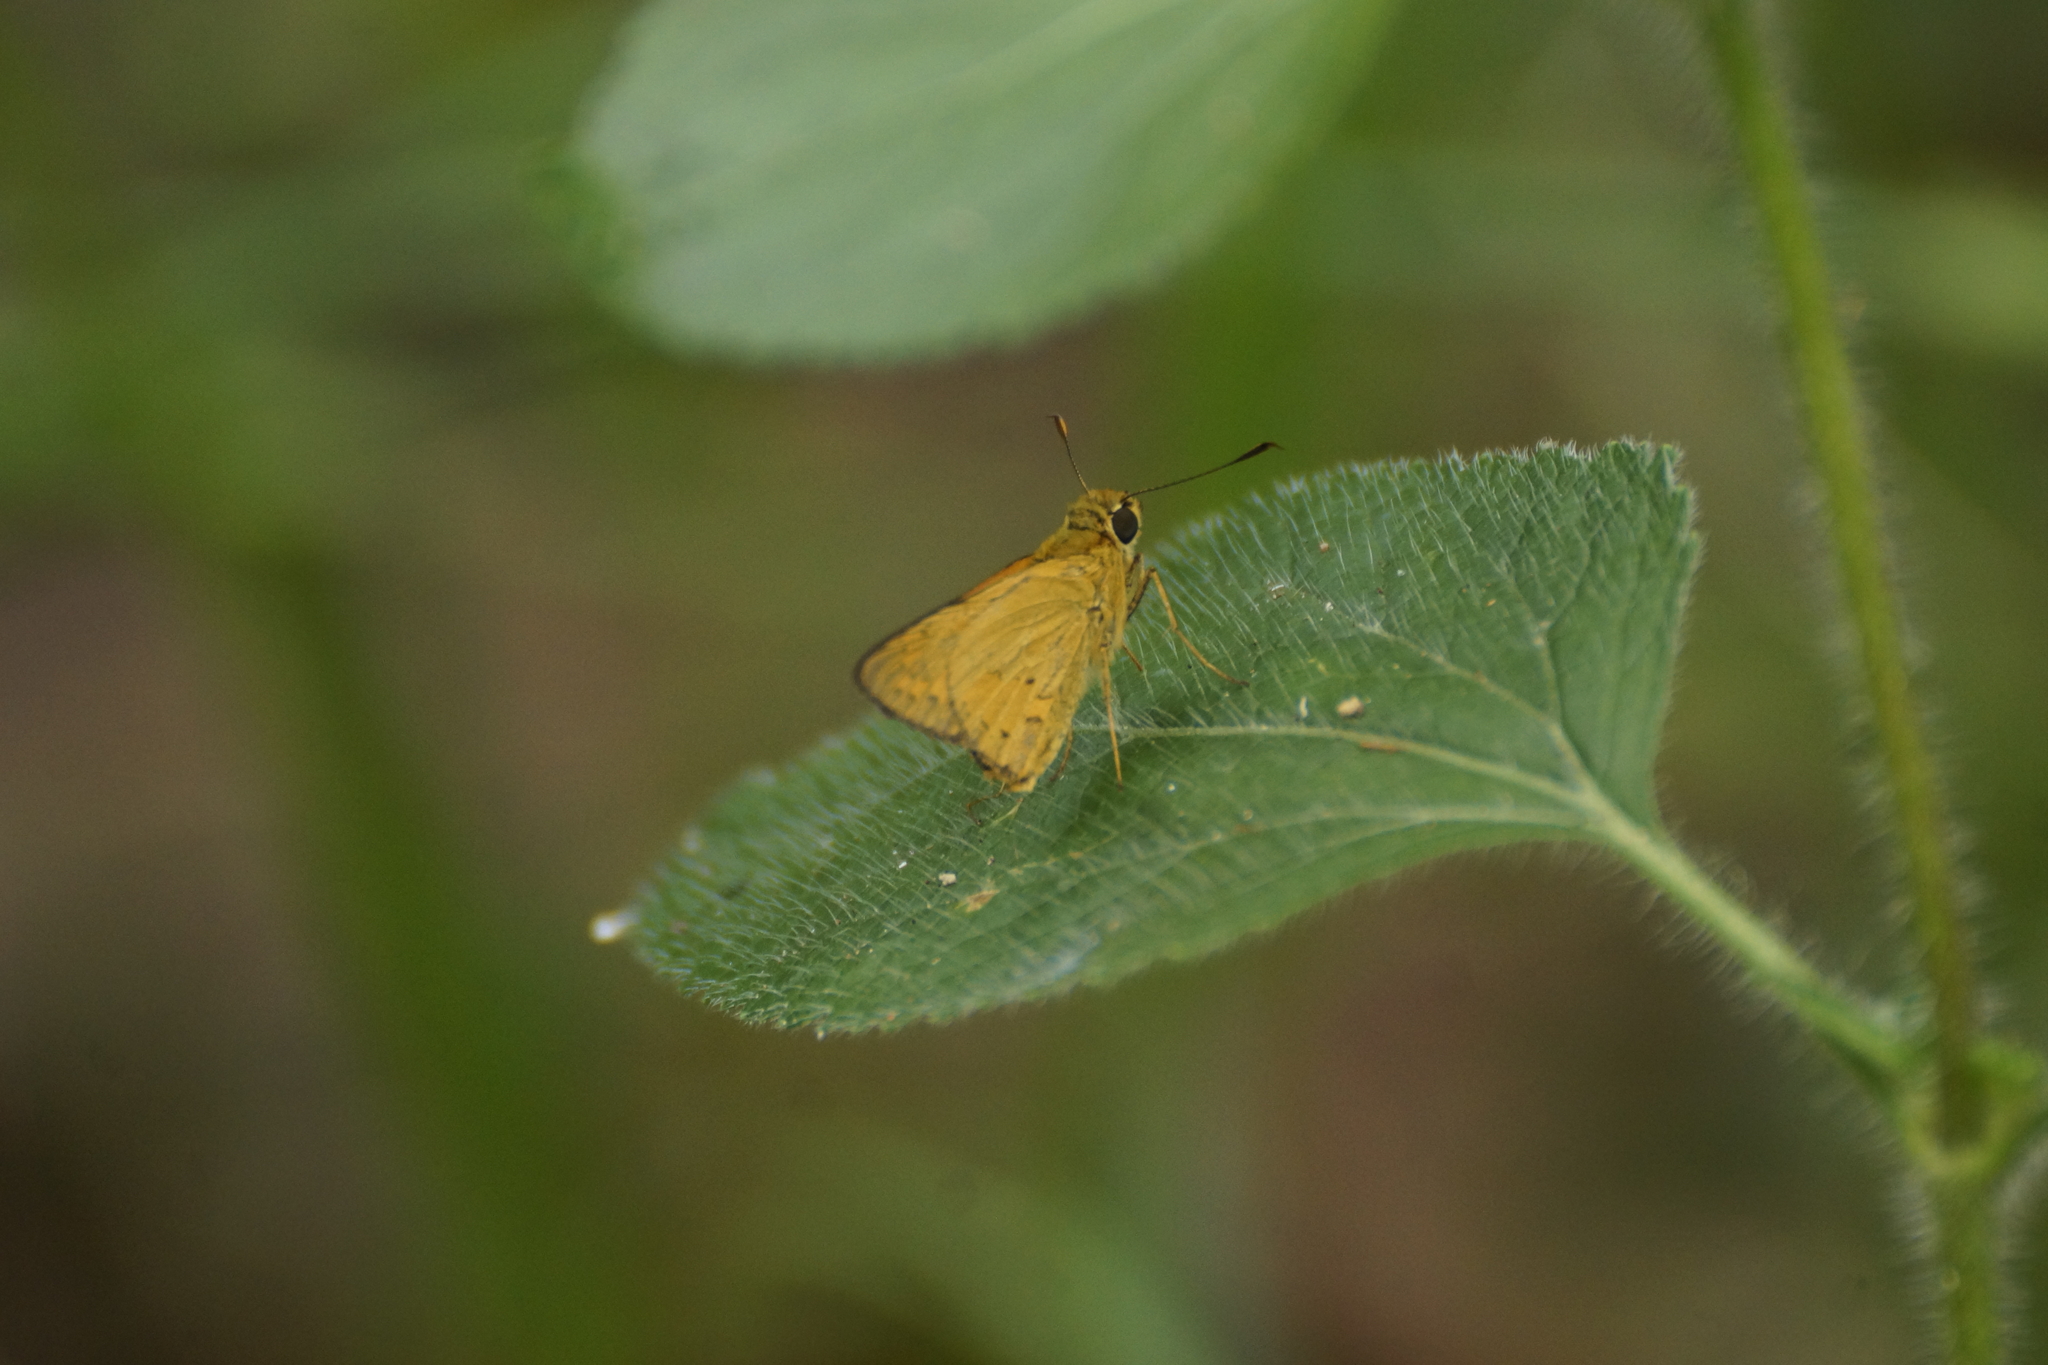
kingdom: Animalia
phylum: Arthropoda
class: Insecta
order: Lepidoptera
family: Hesperiidae
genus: Telicota
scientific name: Telicota colon
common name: Pale palm dart
